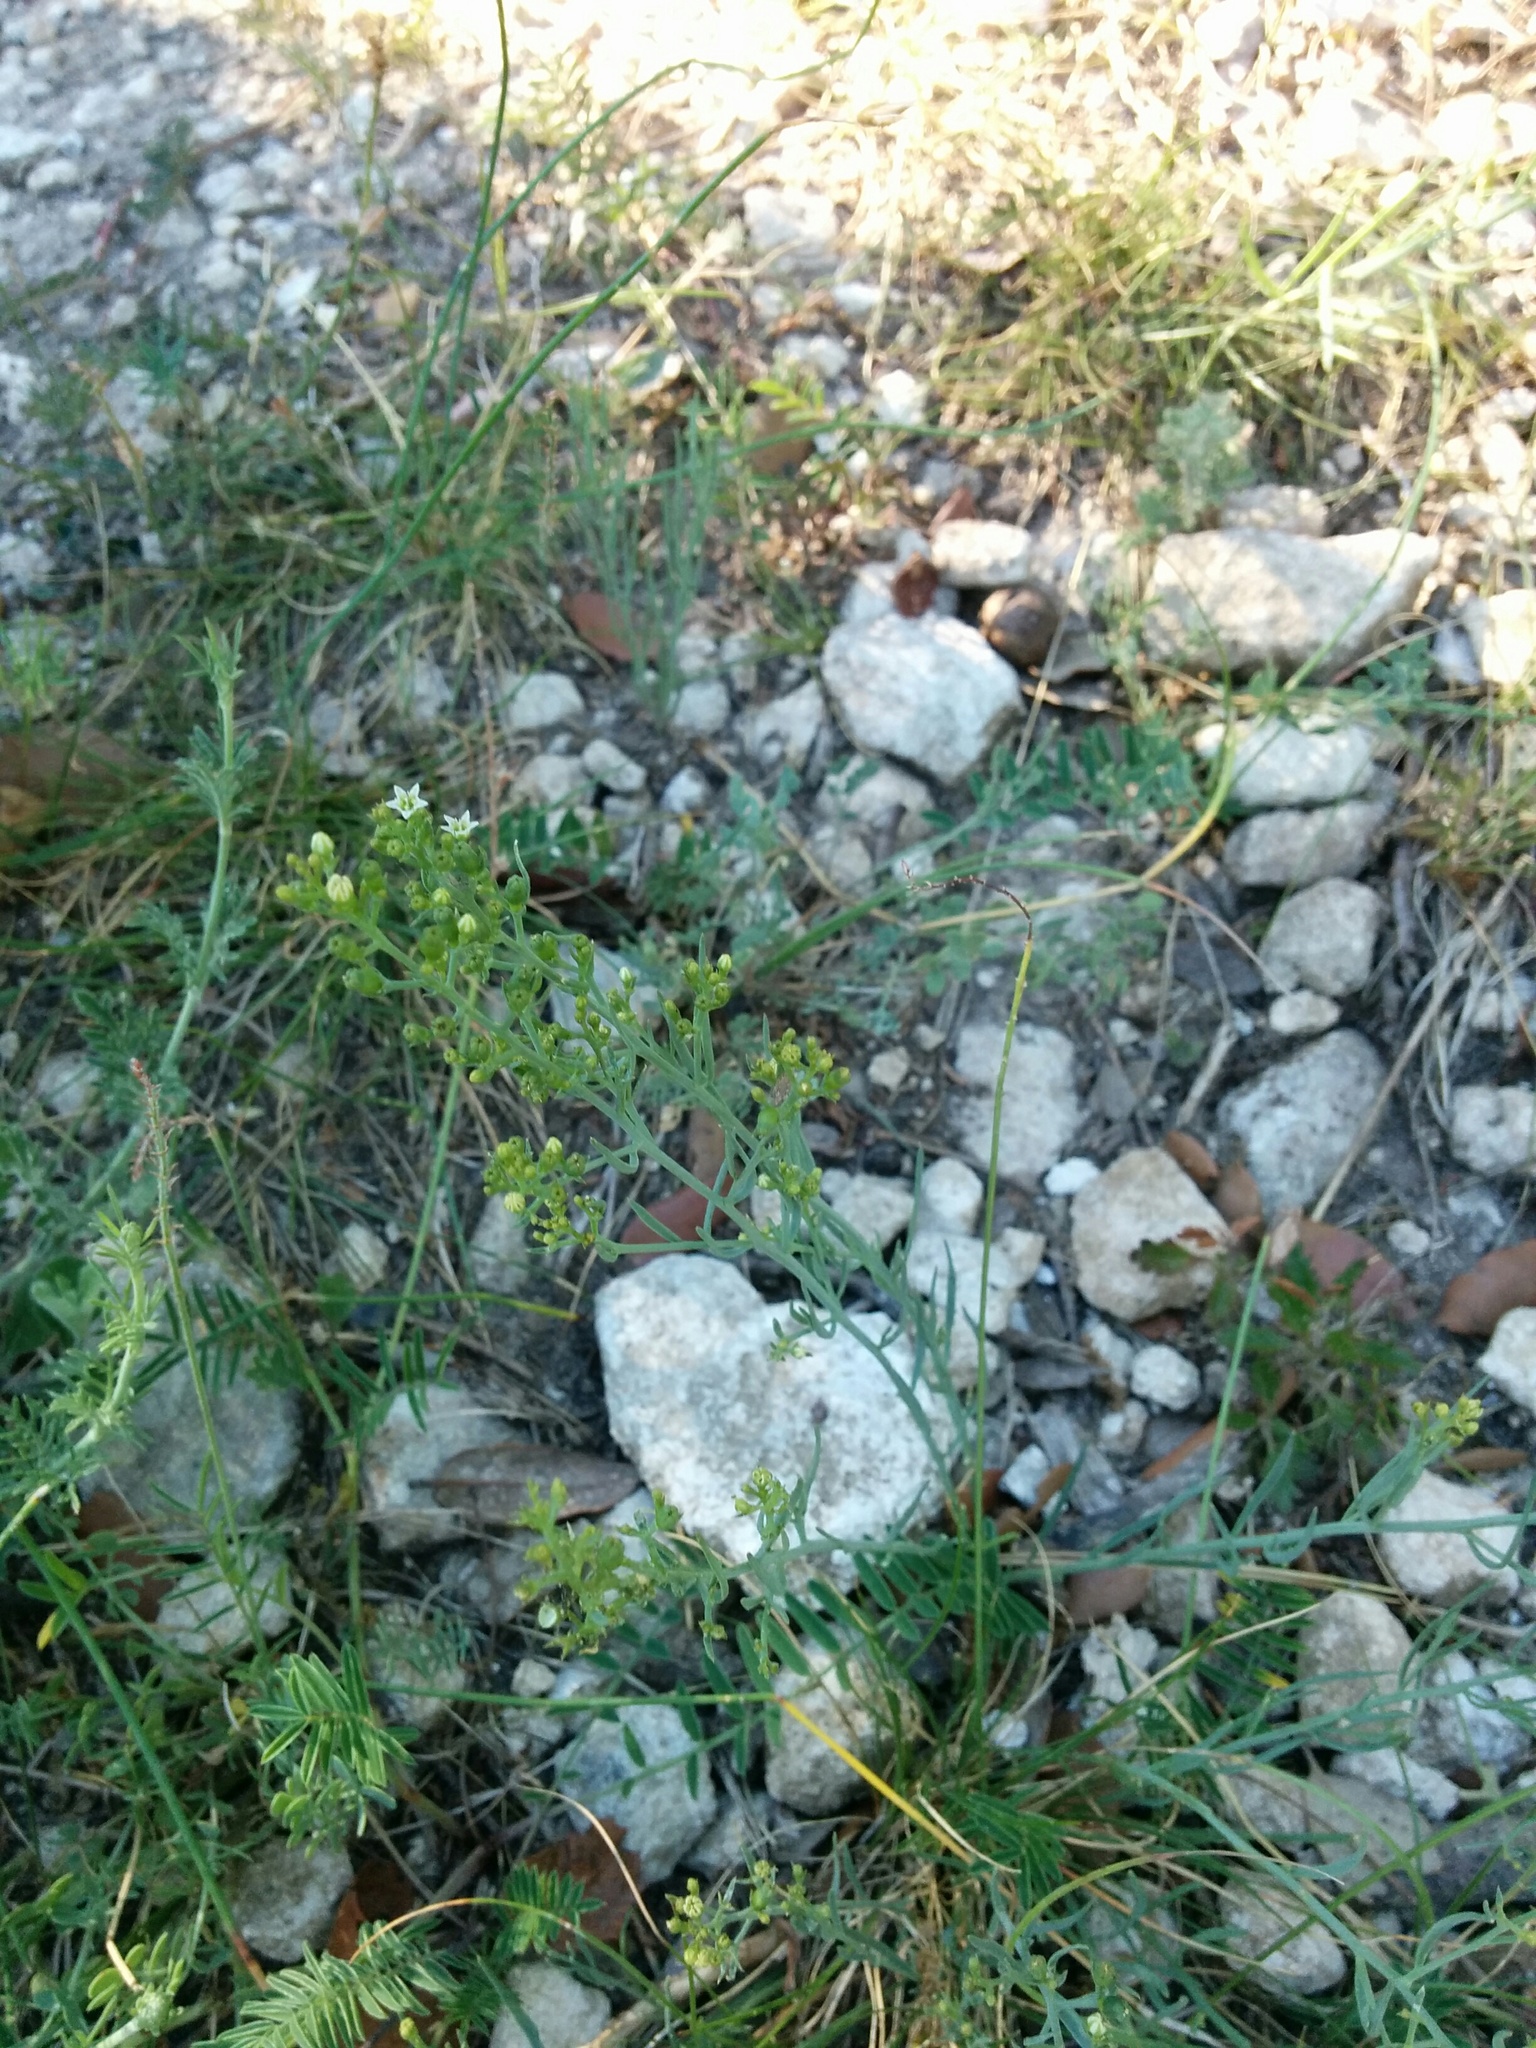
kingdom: Plantae
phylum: Tracheophyta
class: Magnoliopsida
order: Santalales
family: Thesiaceae
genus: Thesium
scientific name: Thesium divaricatum
